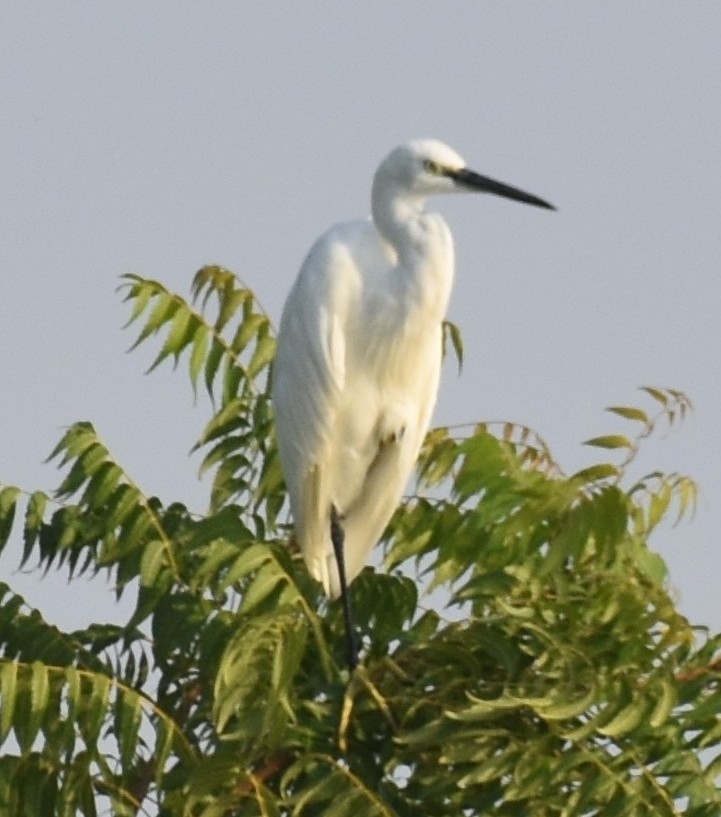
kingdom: Animalia
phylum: Chordata
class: Aves
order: Pelecaniformes
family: Ardeidae
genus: Egretta
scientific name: Egretta garzetta
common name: Little egret
